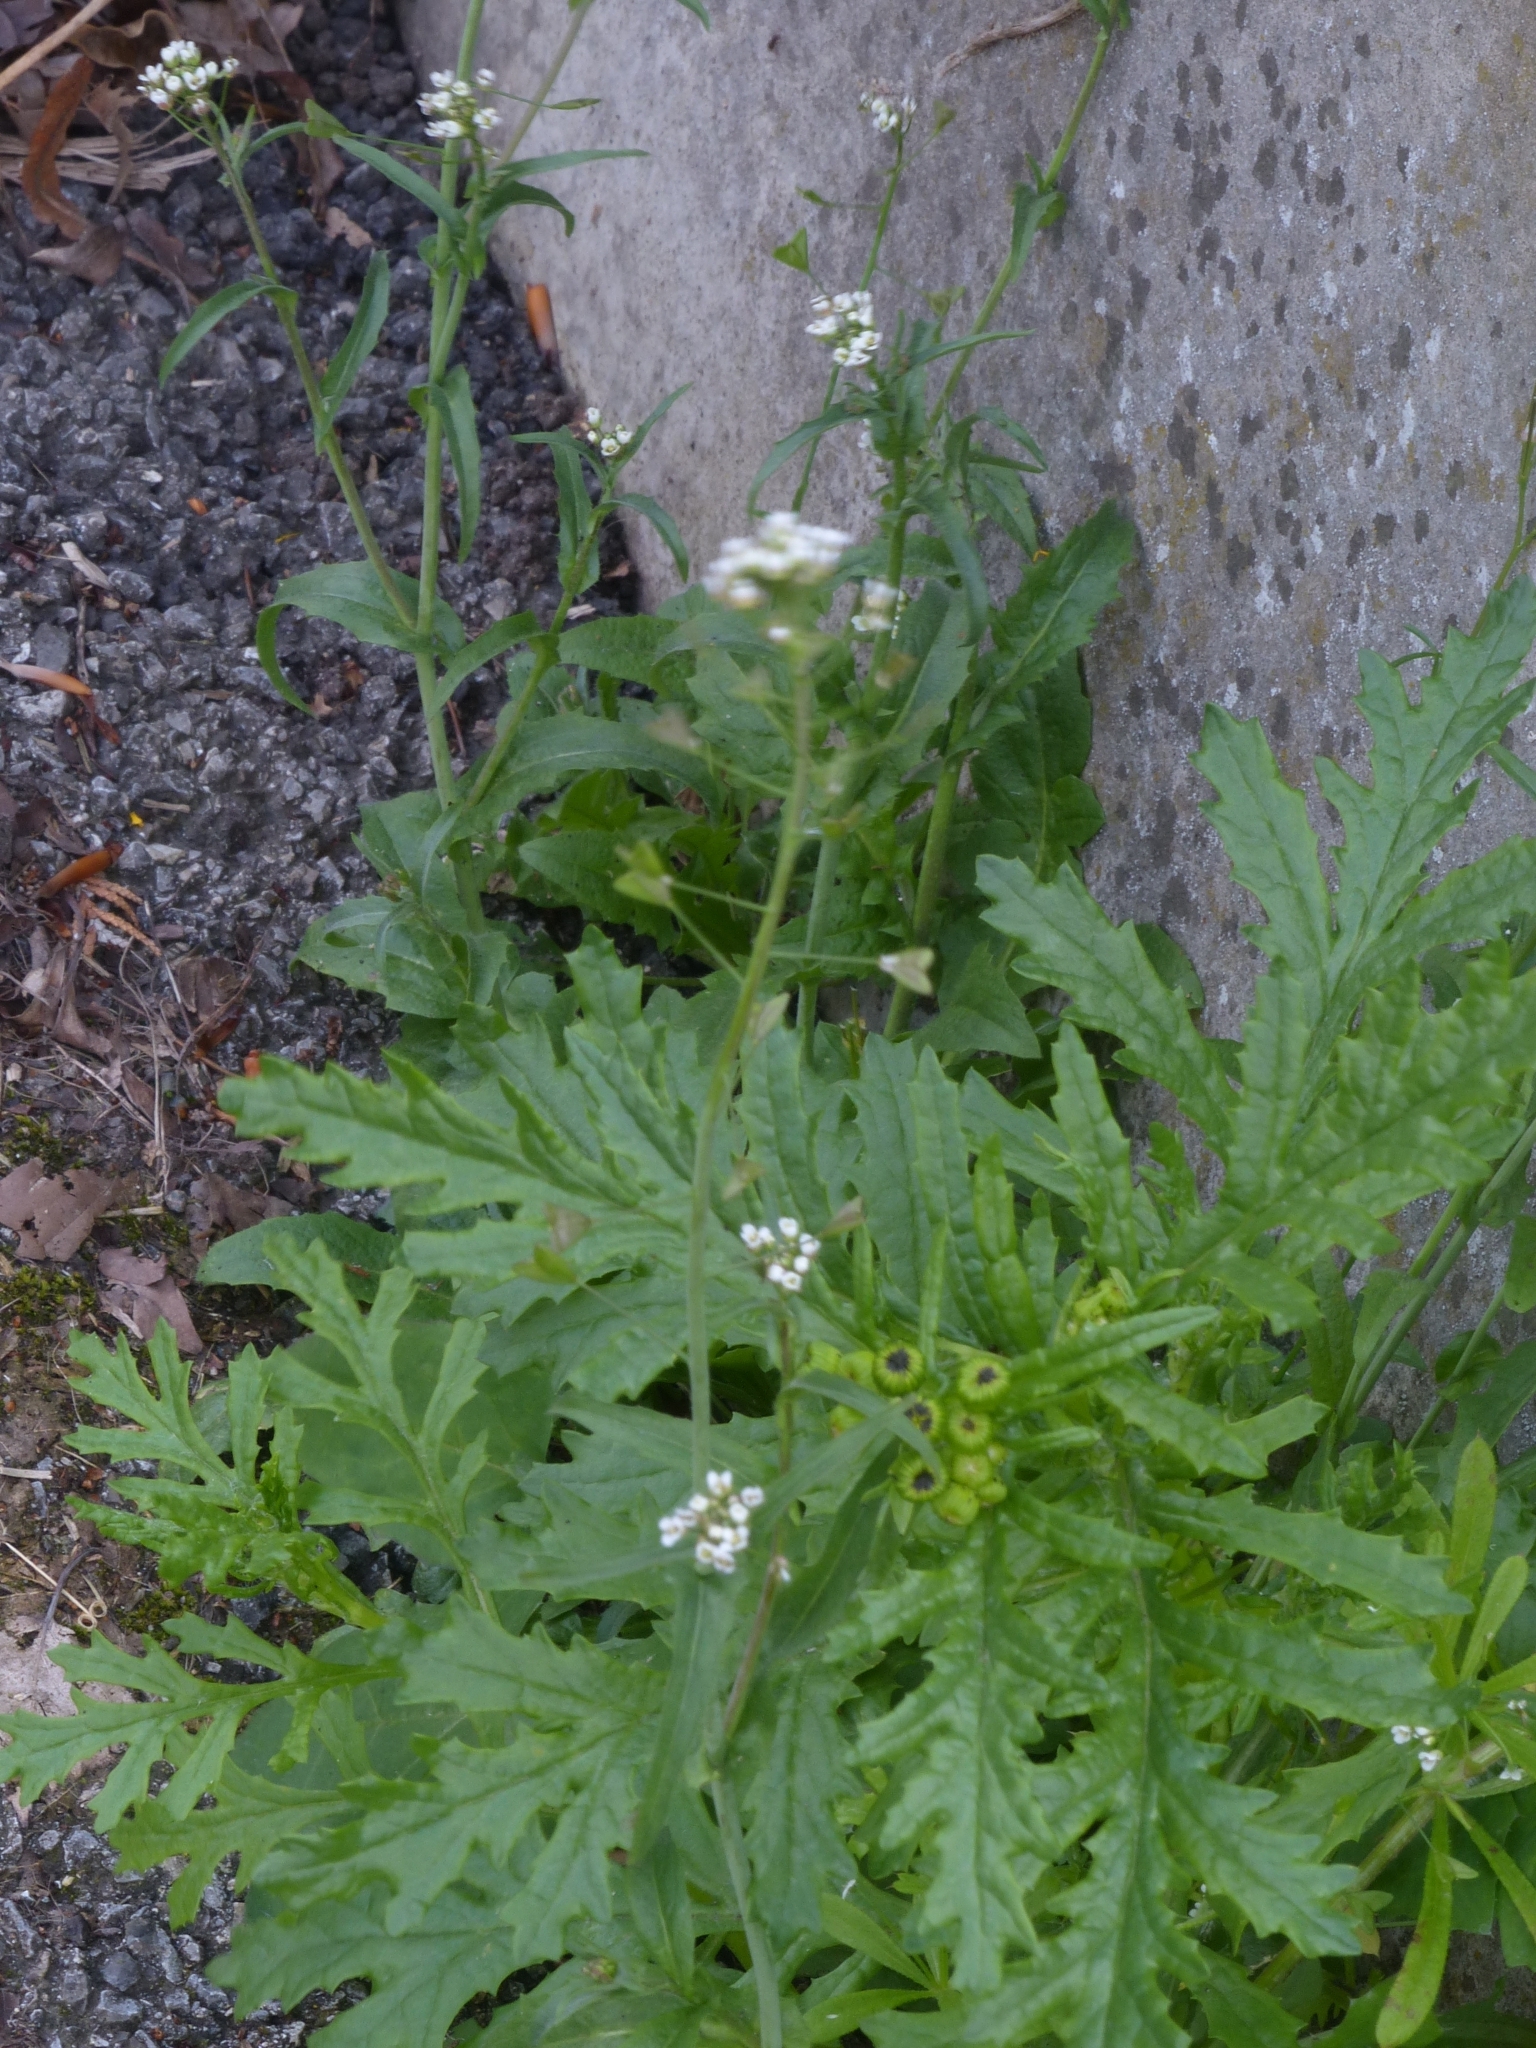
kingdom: Plantae
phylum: Tracheophyta
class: Magnoliopsida
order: Brassicales
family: Brassicaceae
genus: Capsella
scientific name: Capsella bursa-pastoris
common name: Shepherd's purse
